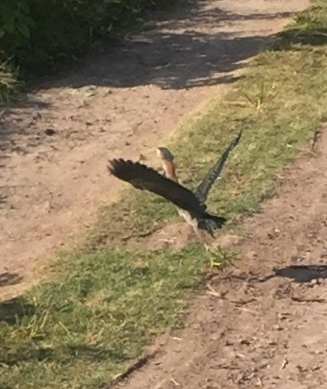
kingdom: Animalia
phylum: Chordata
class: Aves
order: Pelecaniformes
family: Ardeidae
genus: Butorides
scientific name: Butorides virescens
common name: Green heron
